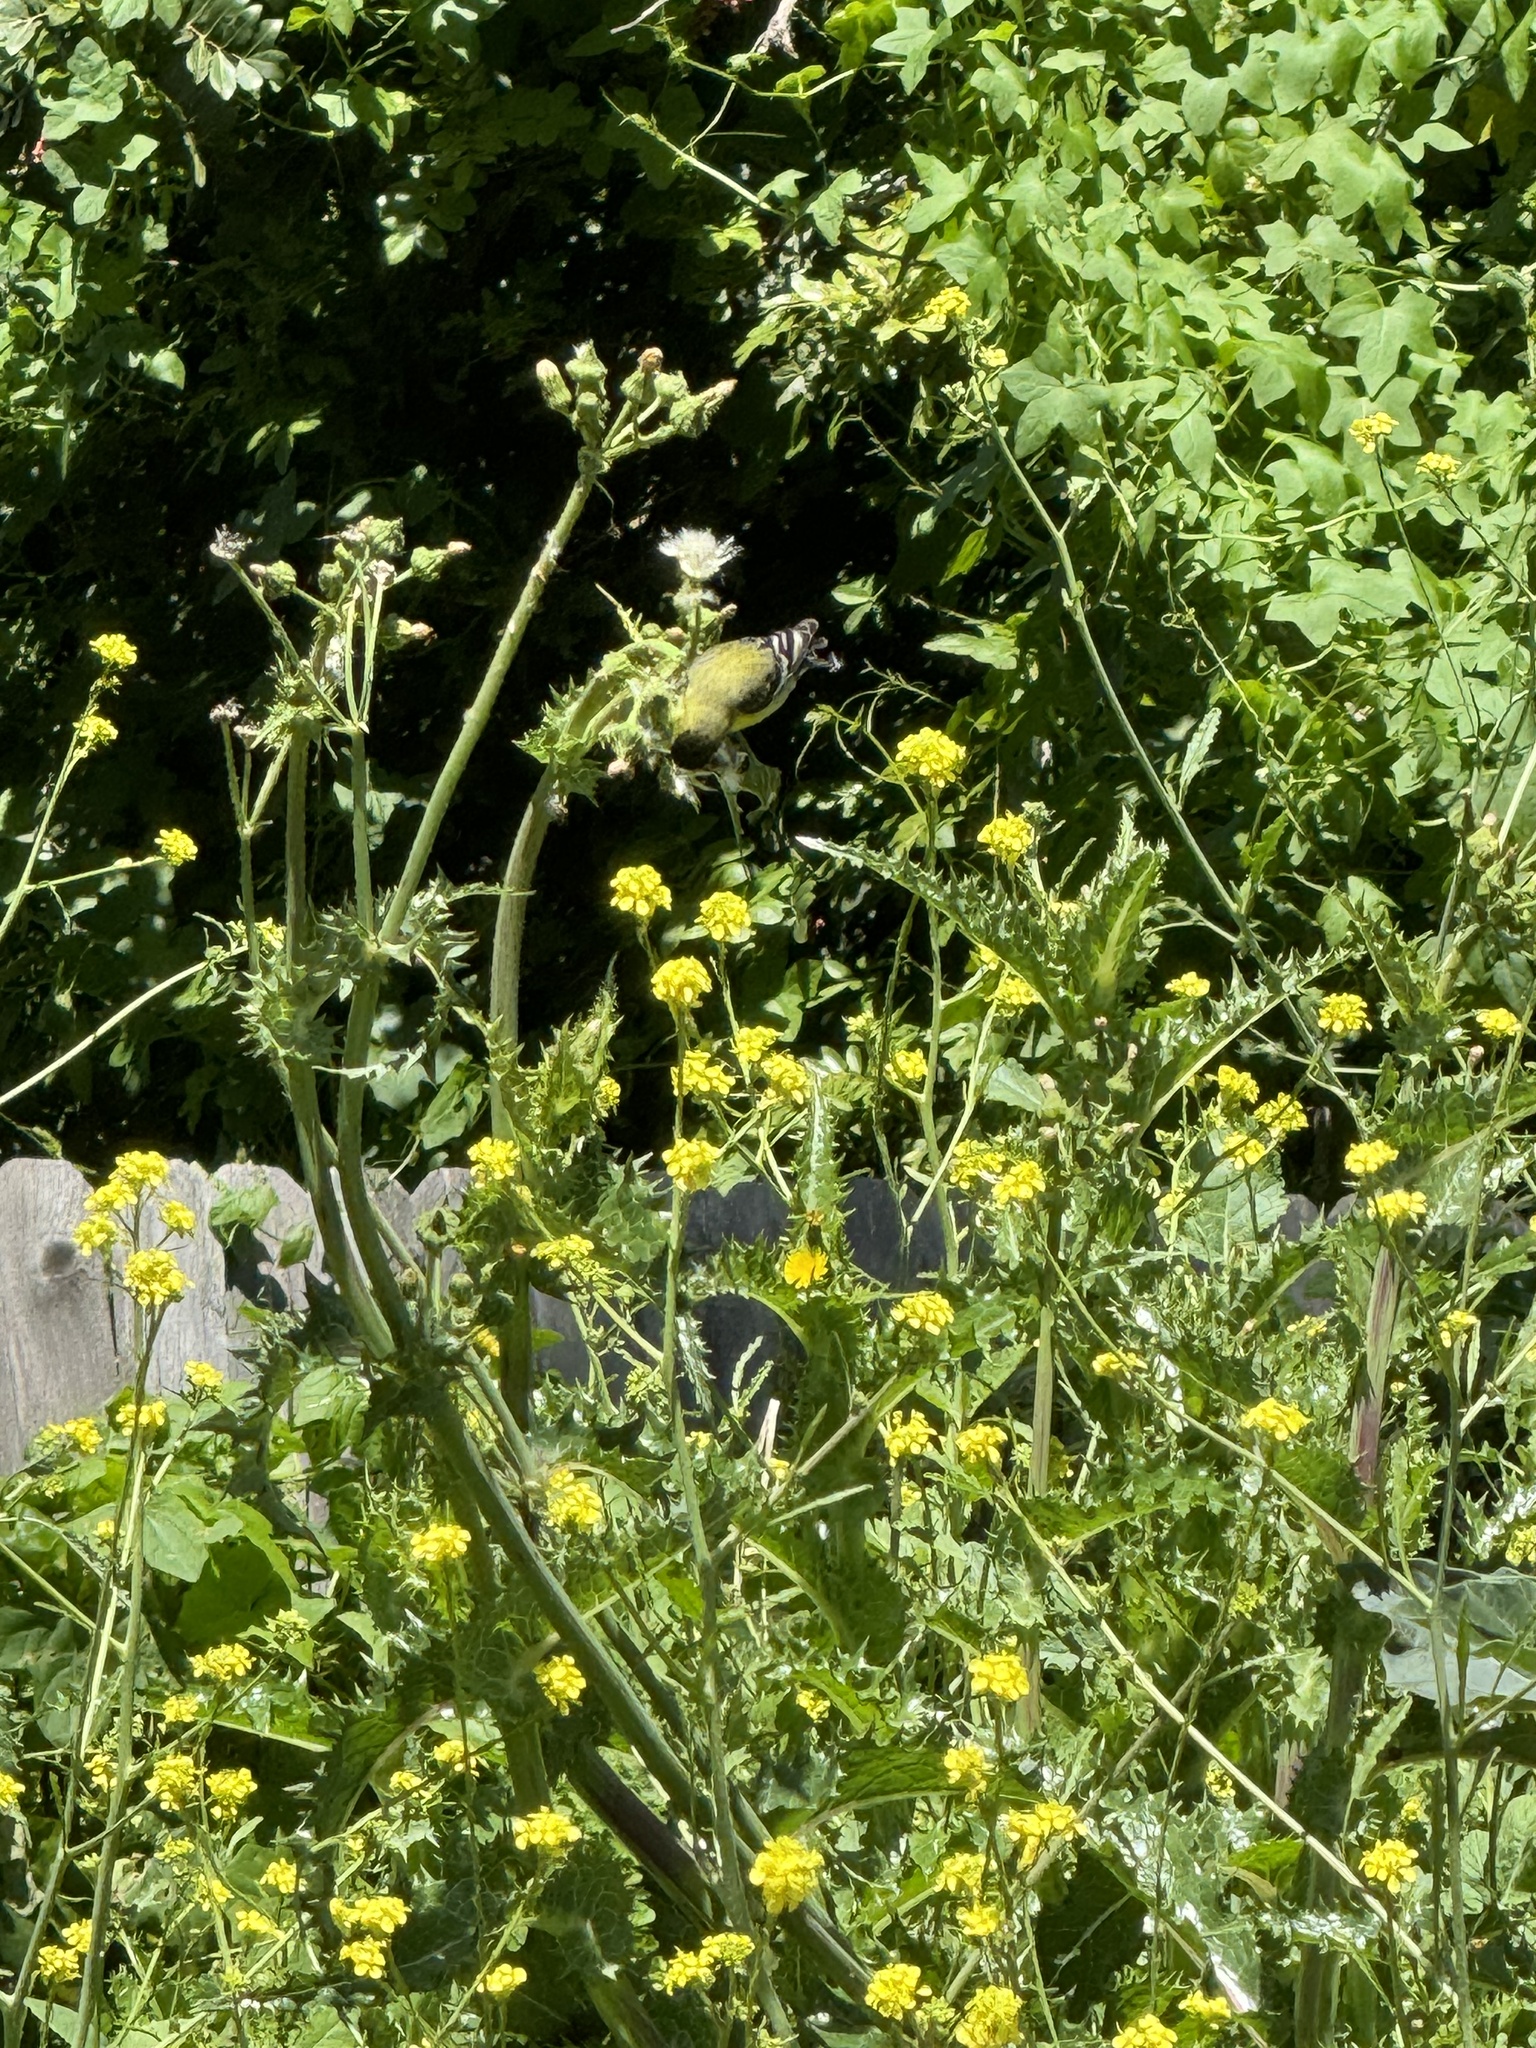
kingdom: Animalia
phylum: Chordata
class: Aves
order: Passeriformes
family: Fringillidae
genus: Spinus
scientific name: Spinus psaltria
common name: Lesser goldfinch
